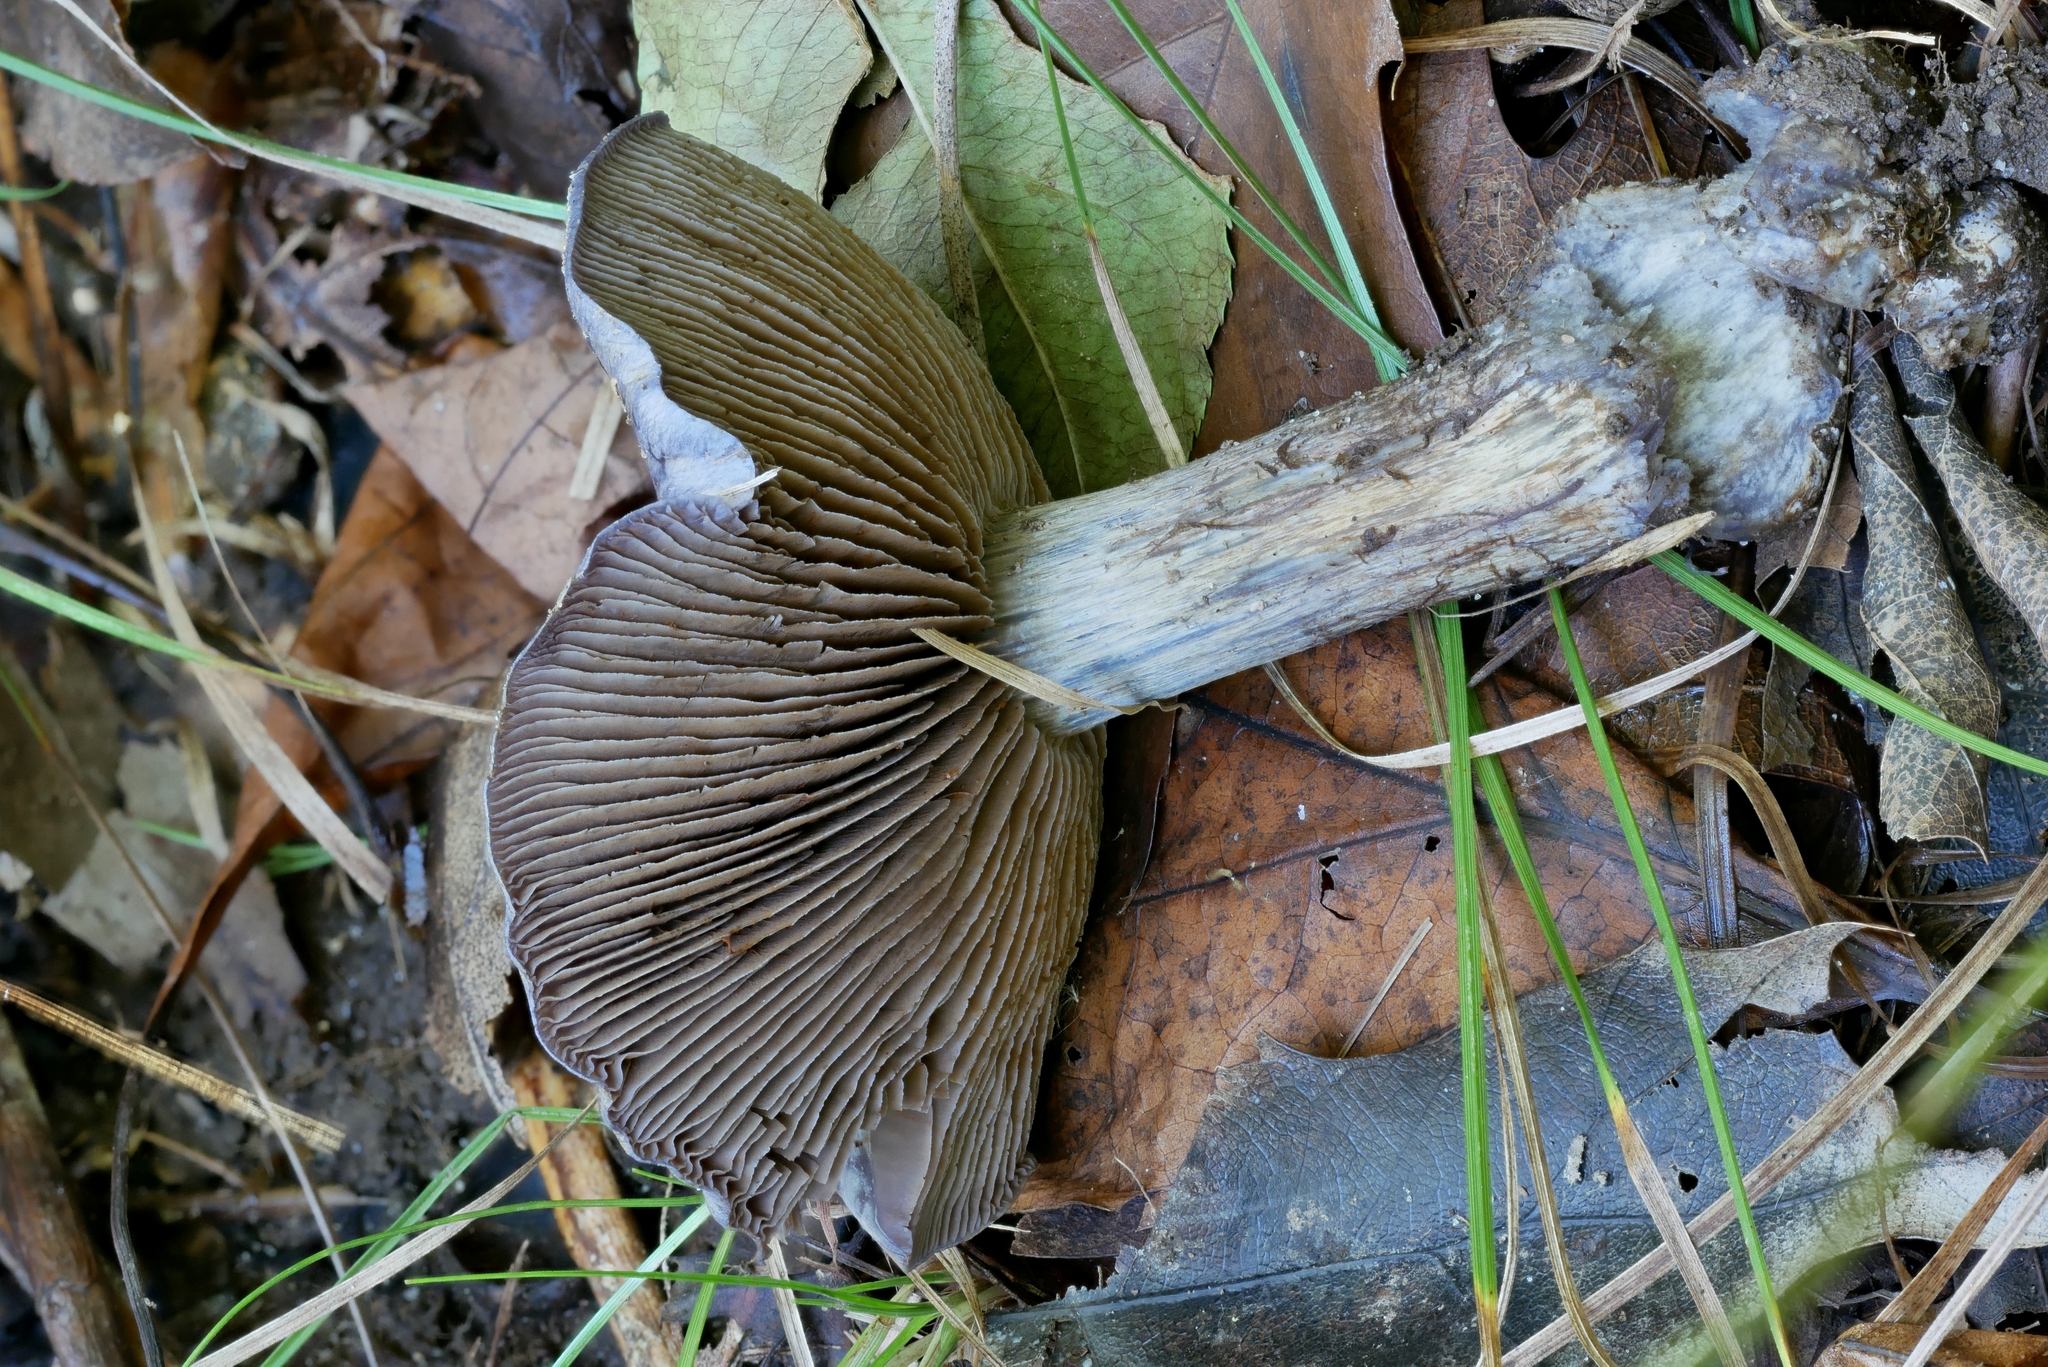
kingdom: Fungi
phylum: Basidiomycota
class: Agaricomycetes
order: Agaricales
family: Cortinariaceae
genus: Phlegmacium
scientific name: Phlegmacium subsolitarium
